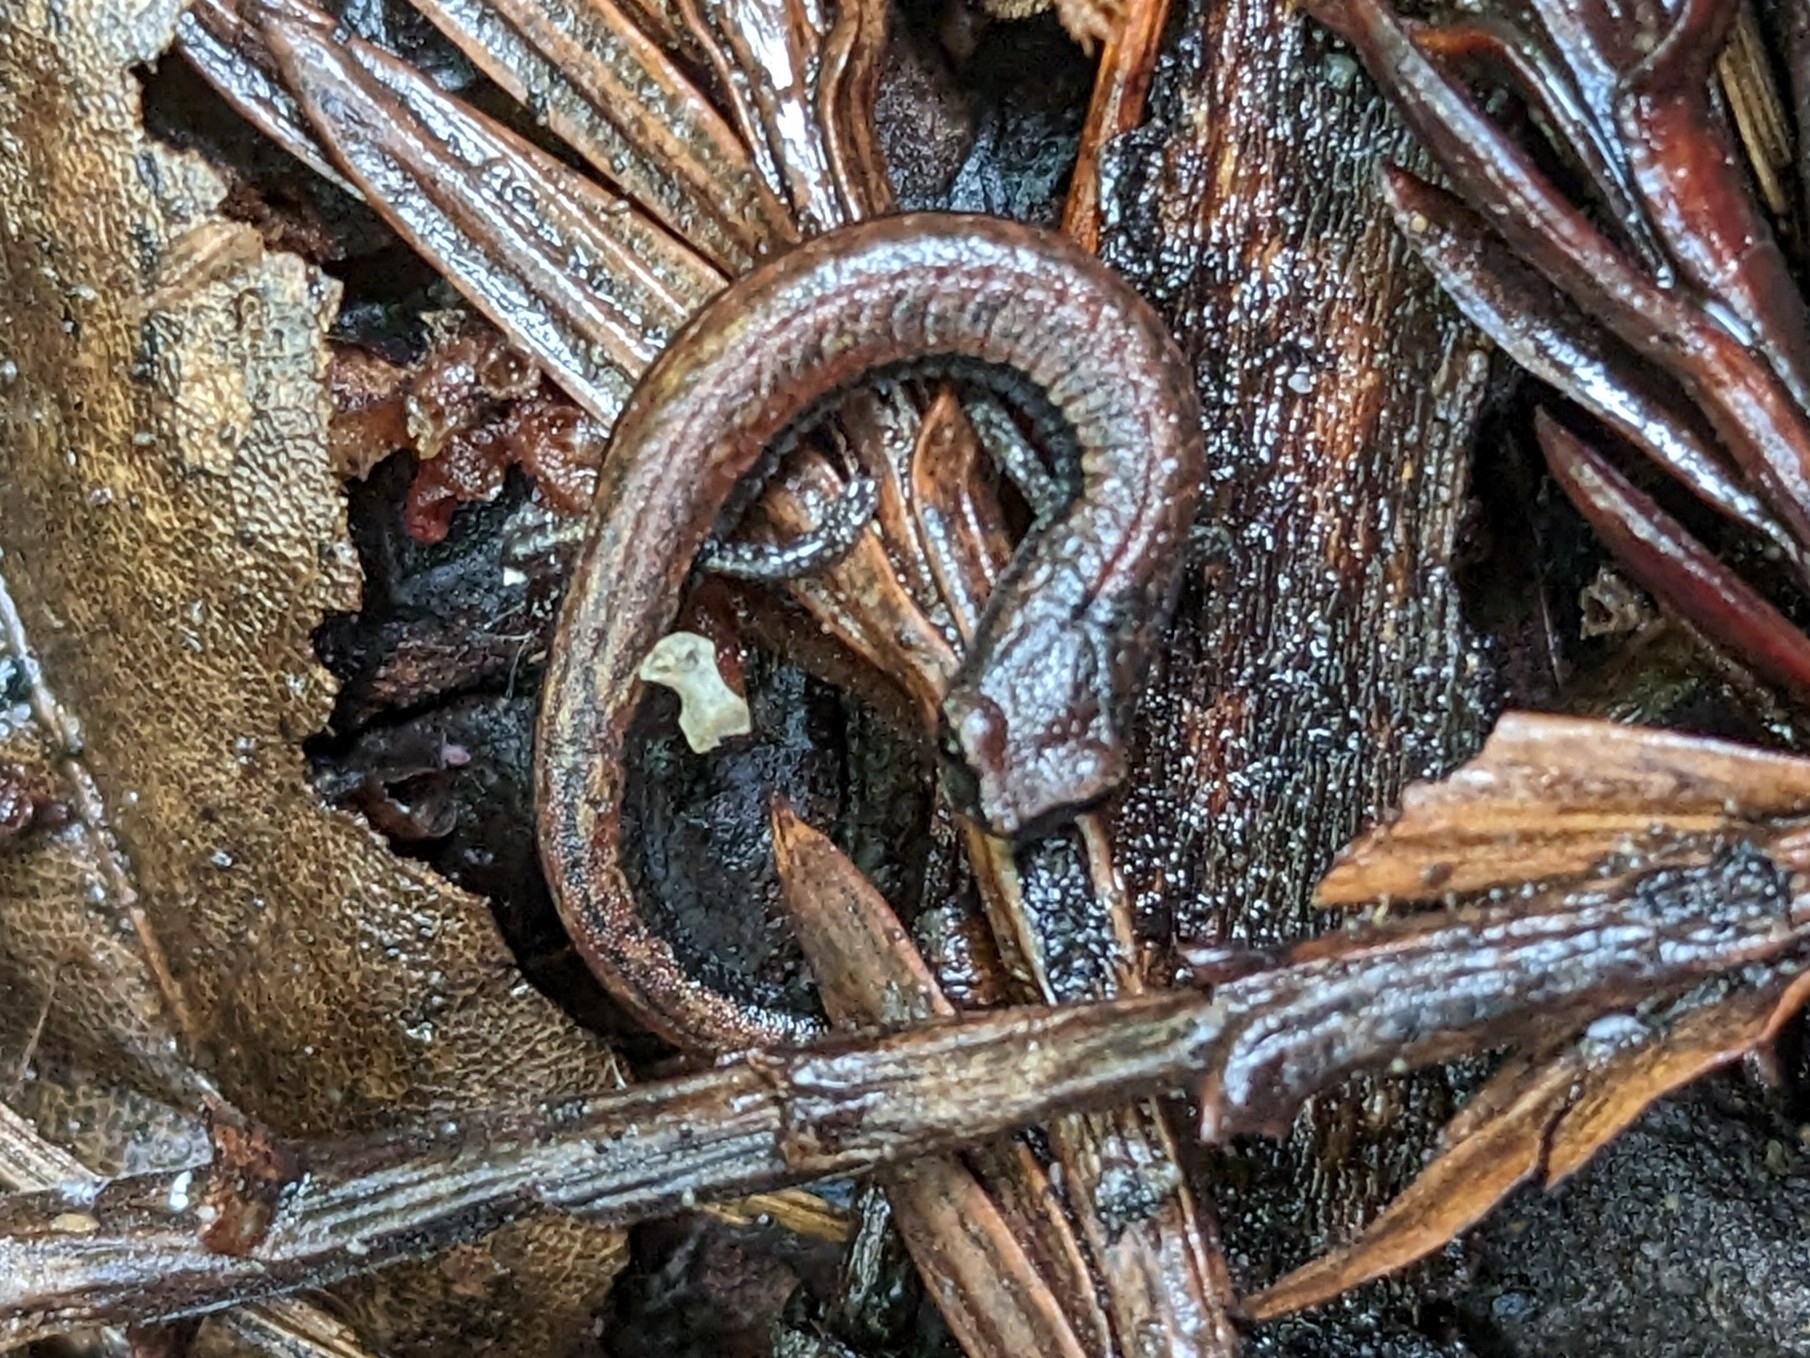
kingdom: Animalia
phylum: Chordata
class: Amphibia
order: Caudata
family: Plethodontidae
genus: Batrachoseps
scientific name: Batrachoseps attenuatus
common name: California slender salamander
